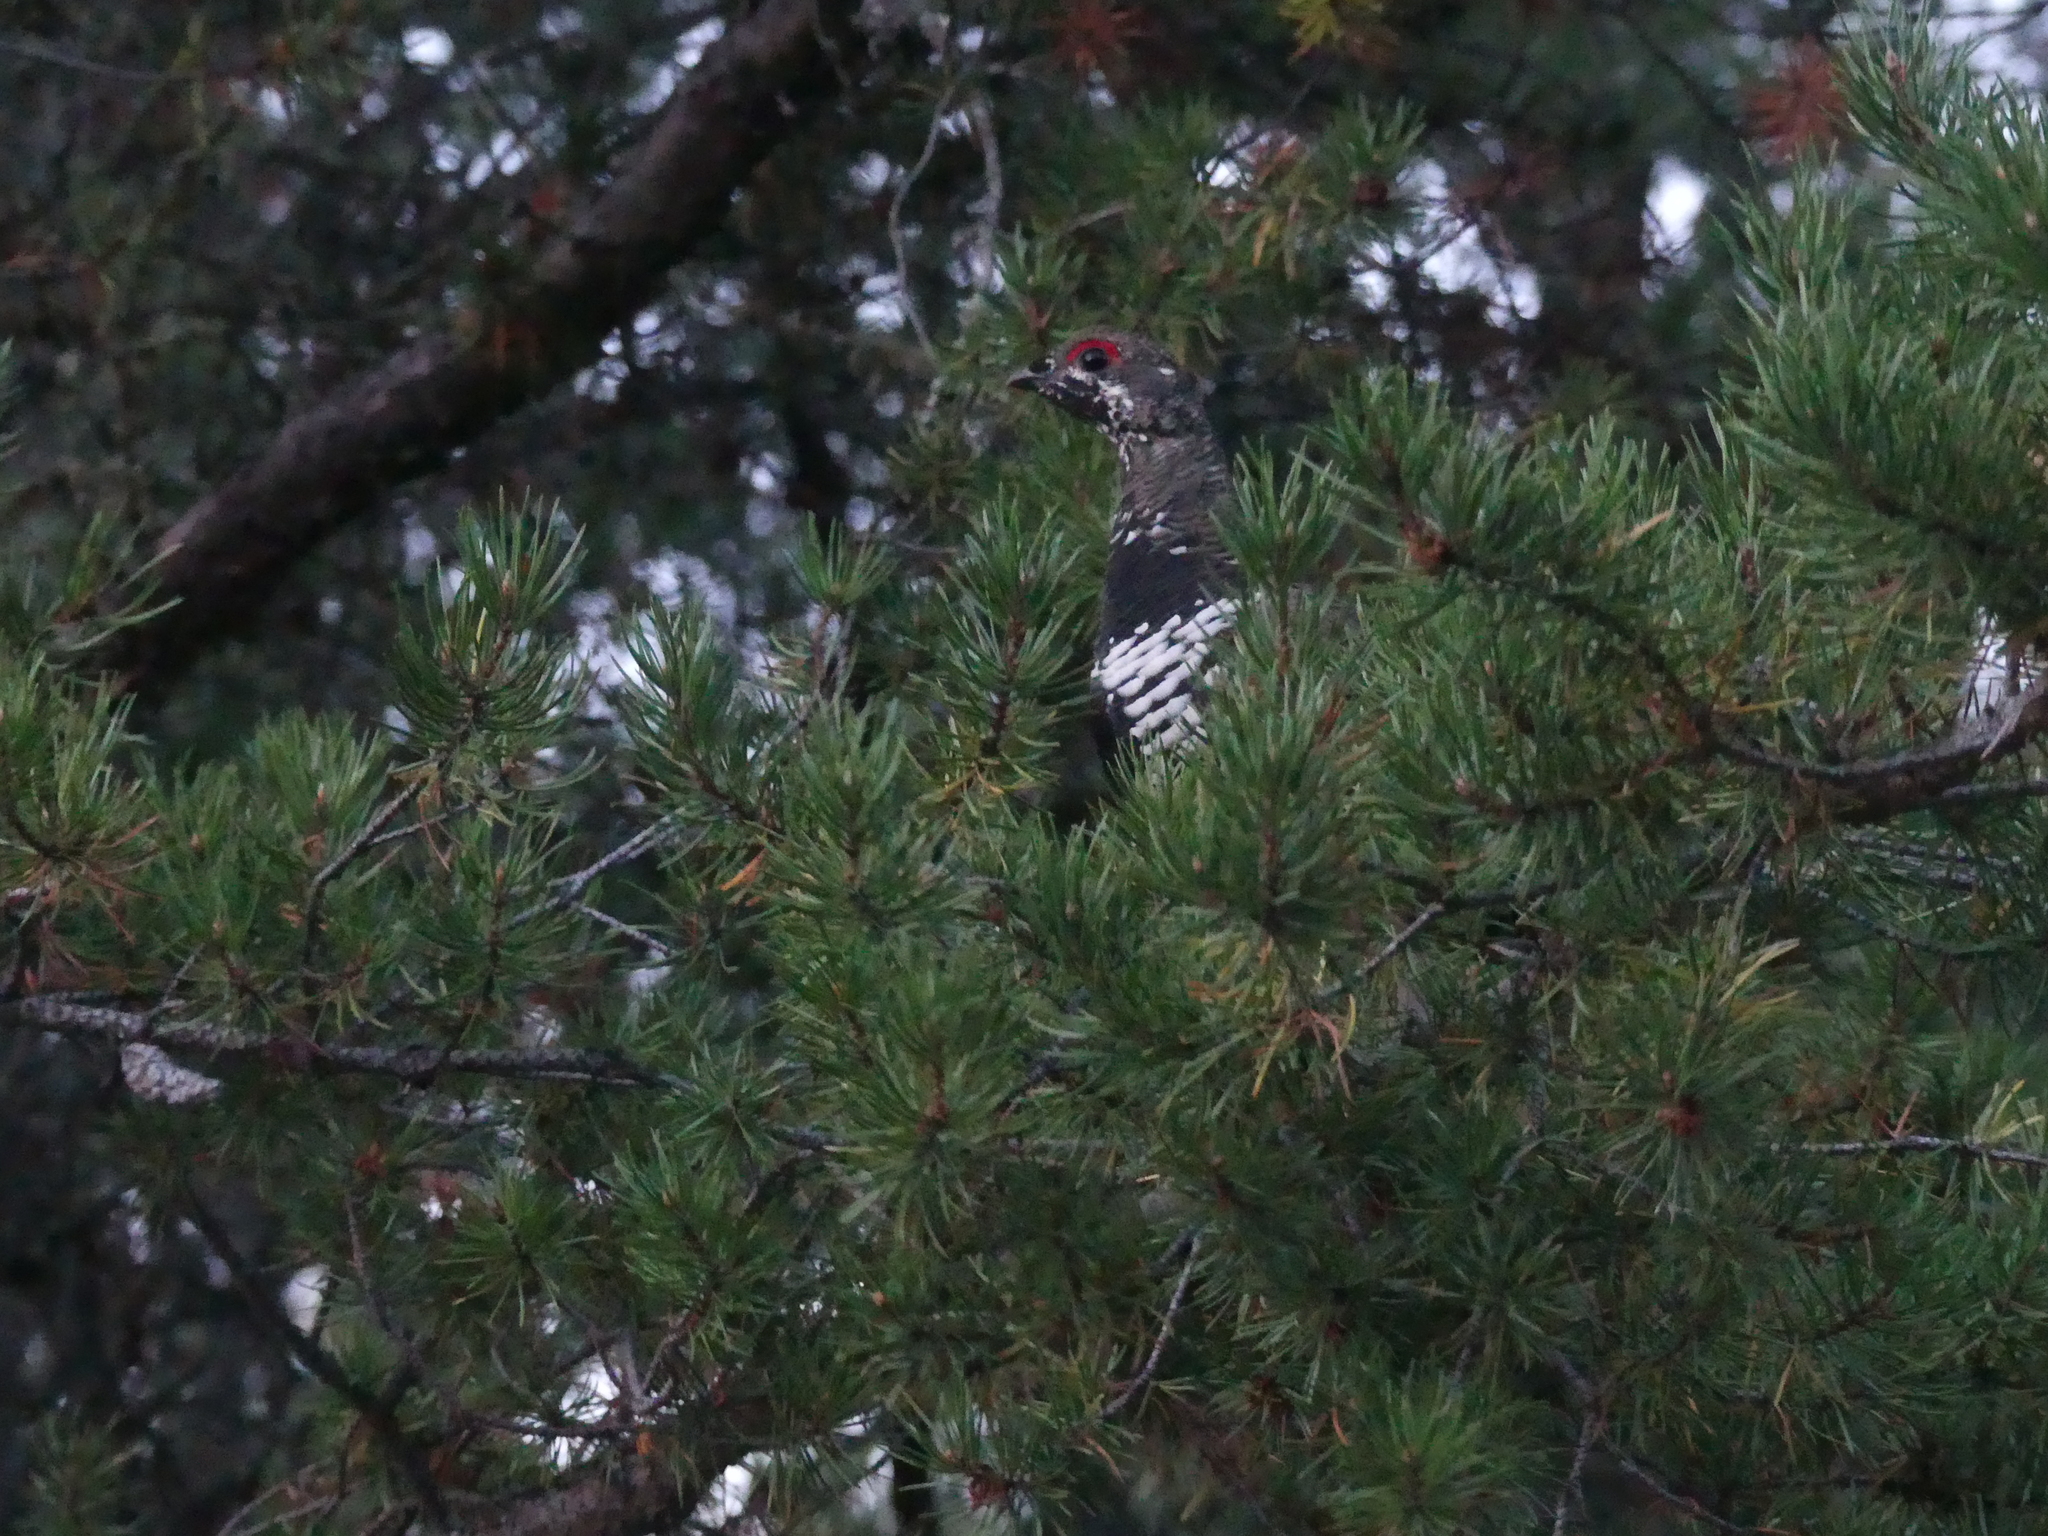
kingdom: Animalia
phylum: Chordata
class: Aves
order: Galliformes
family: Phasianidae
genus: Canachites
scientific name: Canachites canadensis
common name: Spruce grouse
